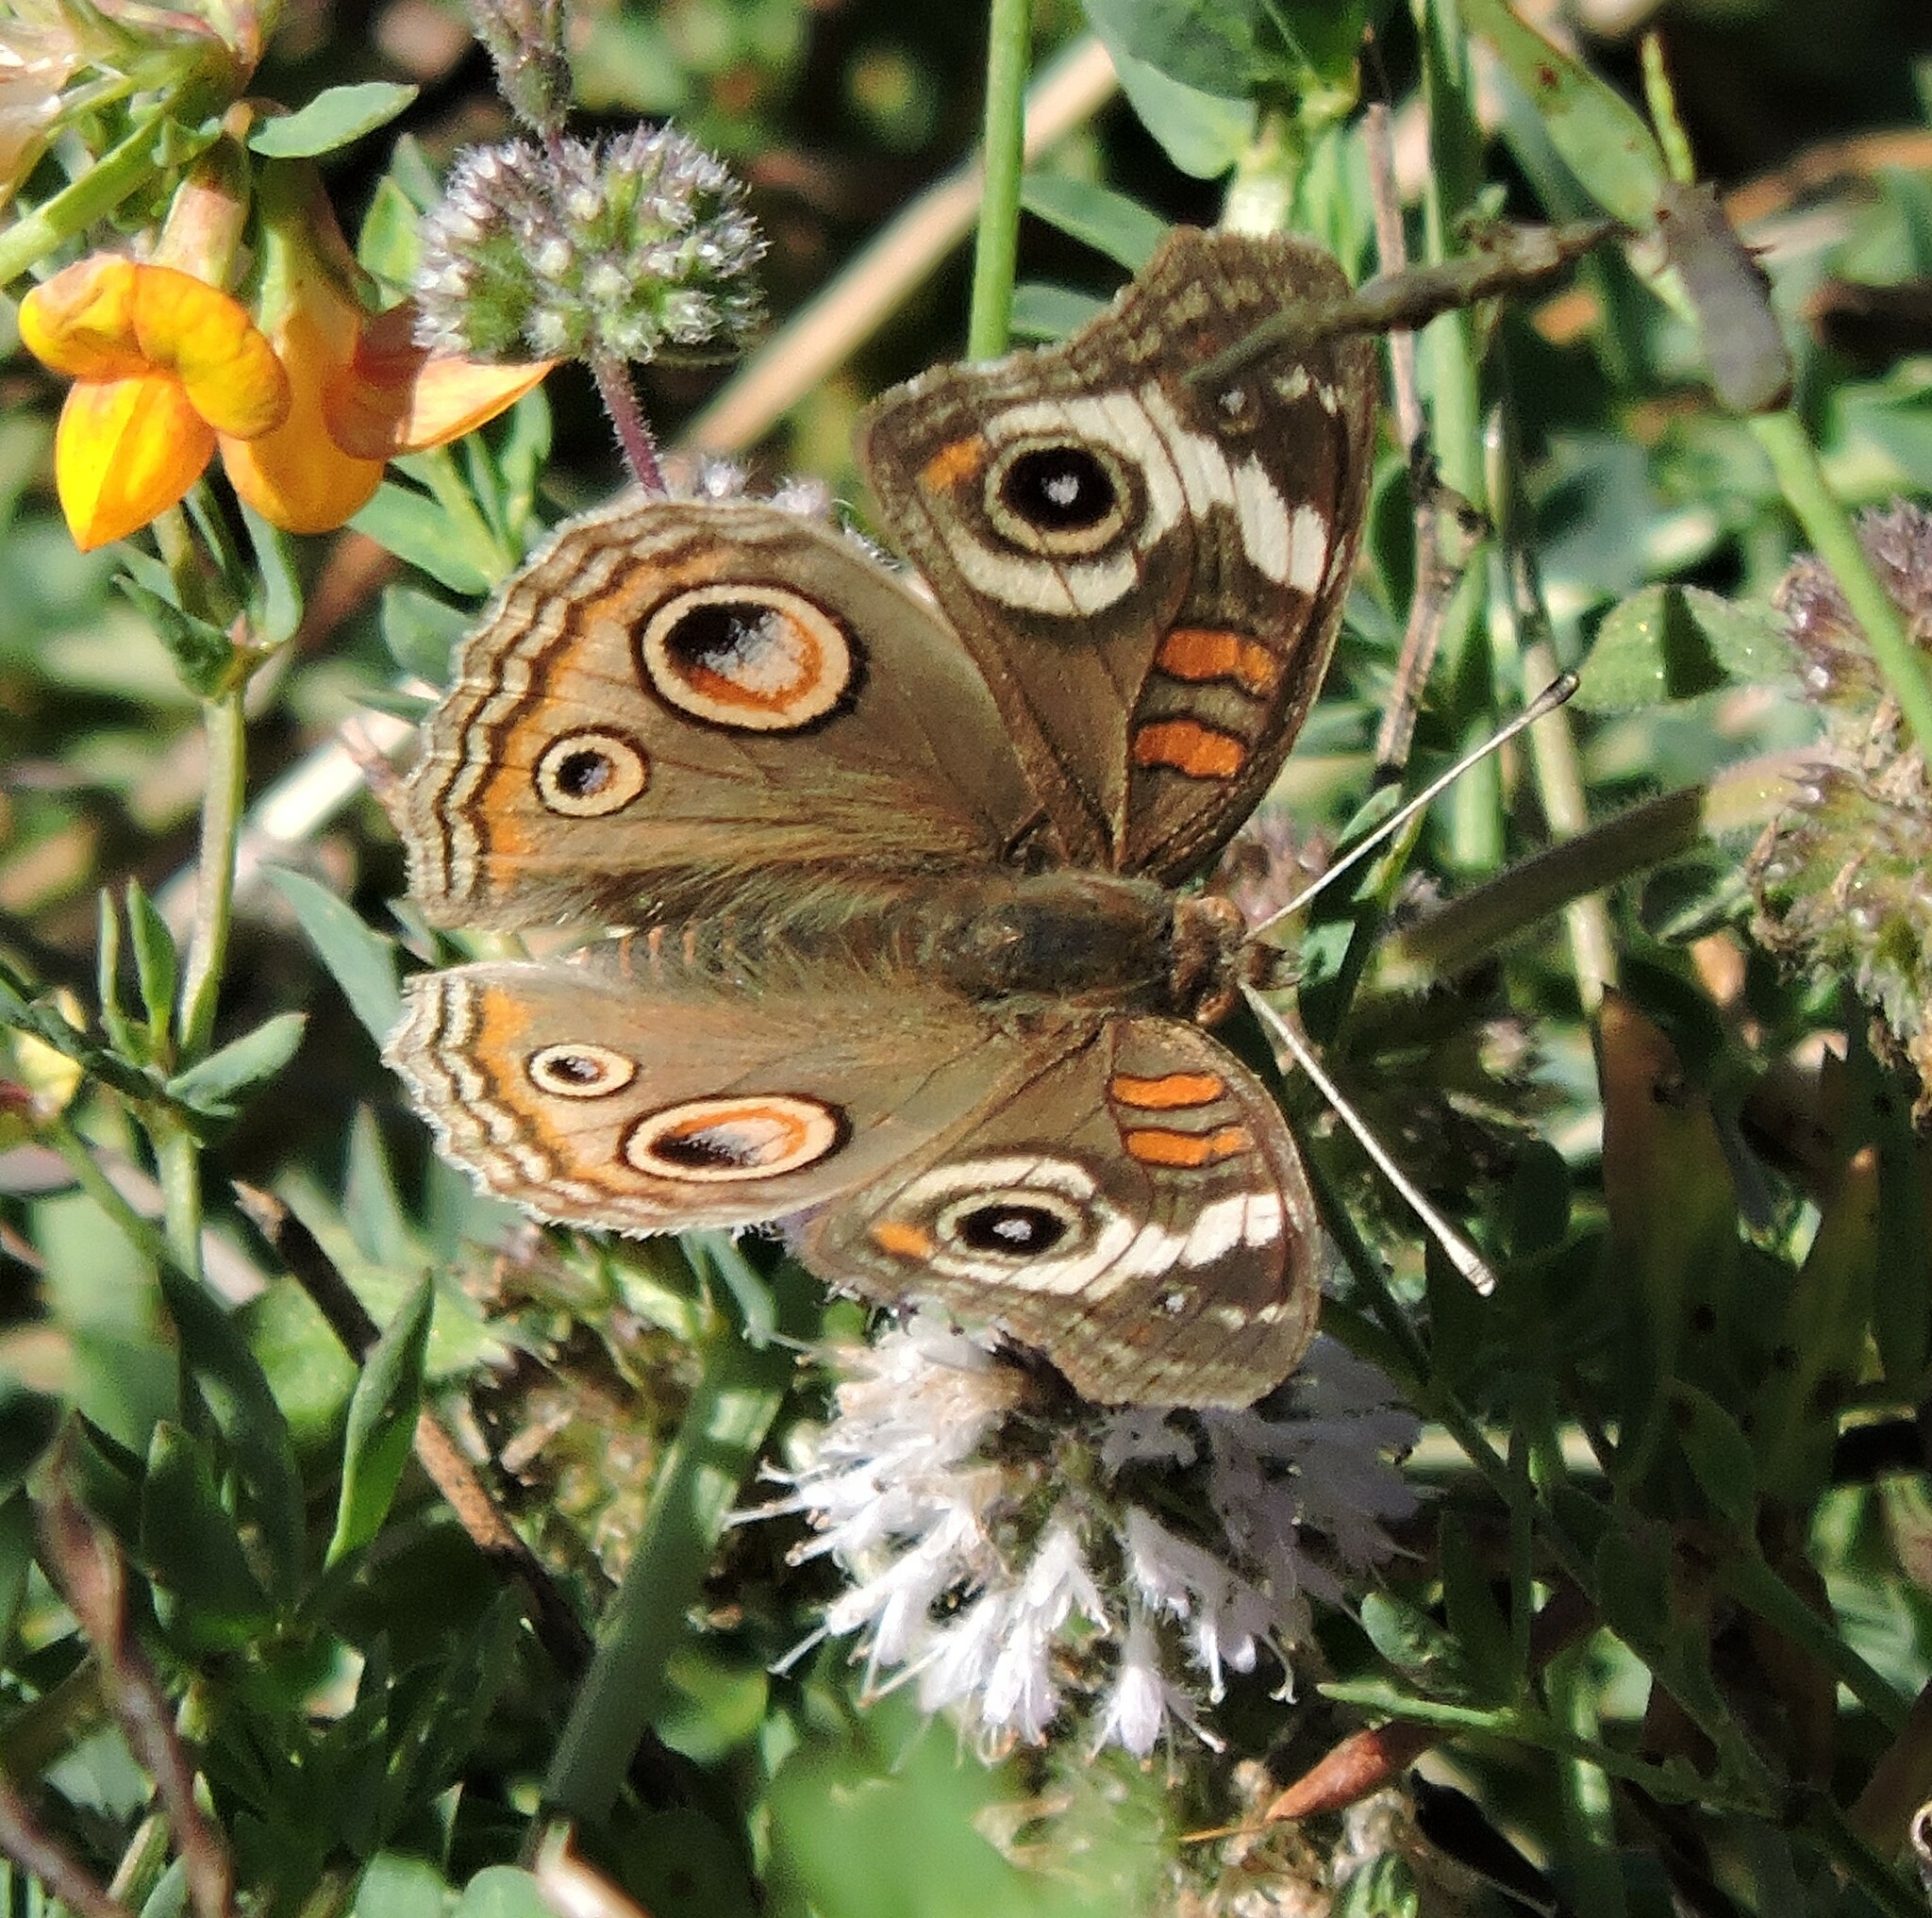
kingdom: Animalia
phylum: Arthropoda
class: Insecta
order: Lepidoptera
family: Nymphalidae
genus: Junonia
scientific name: Junonia grisea
